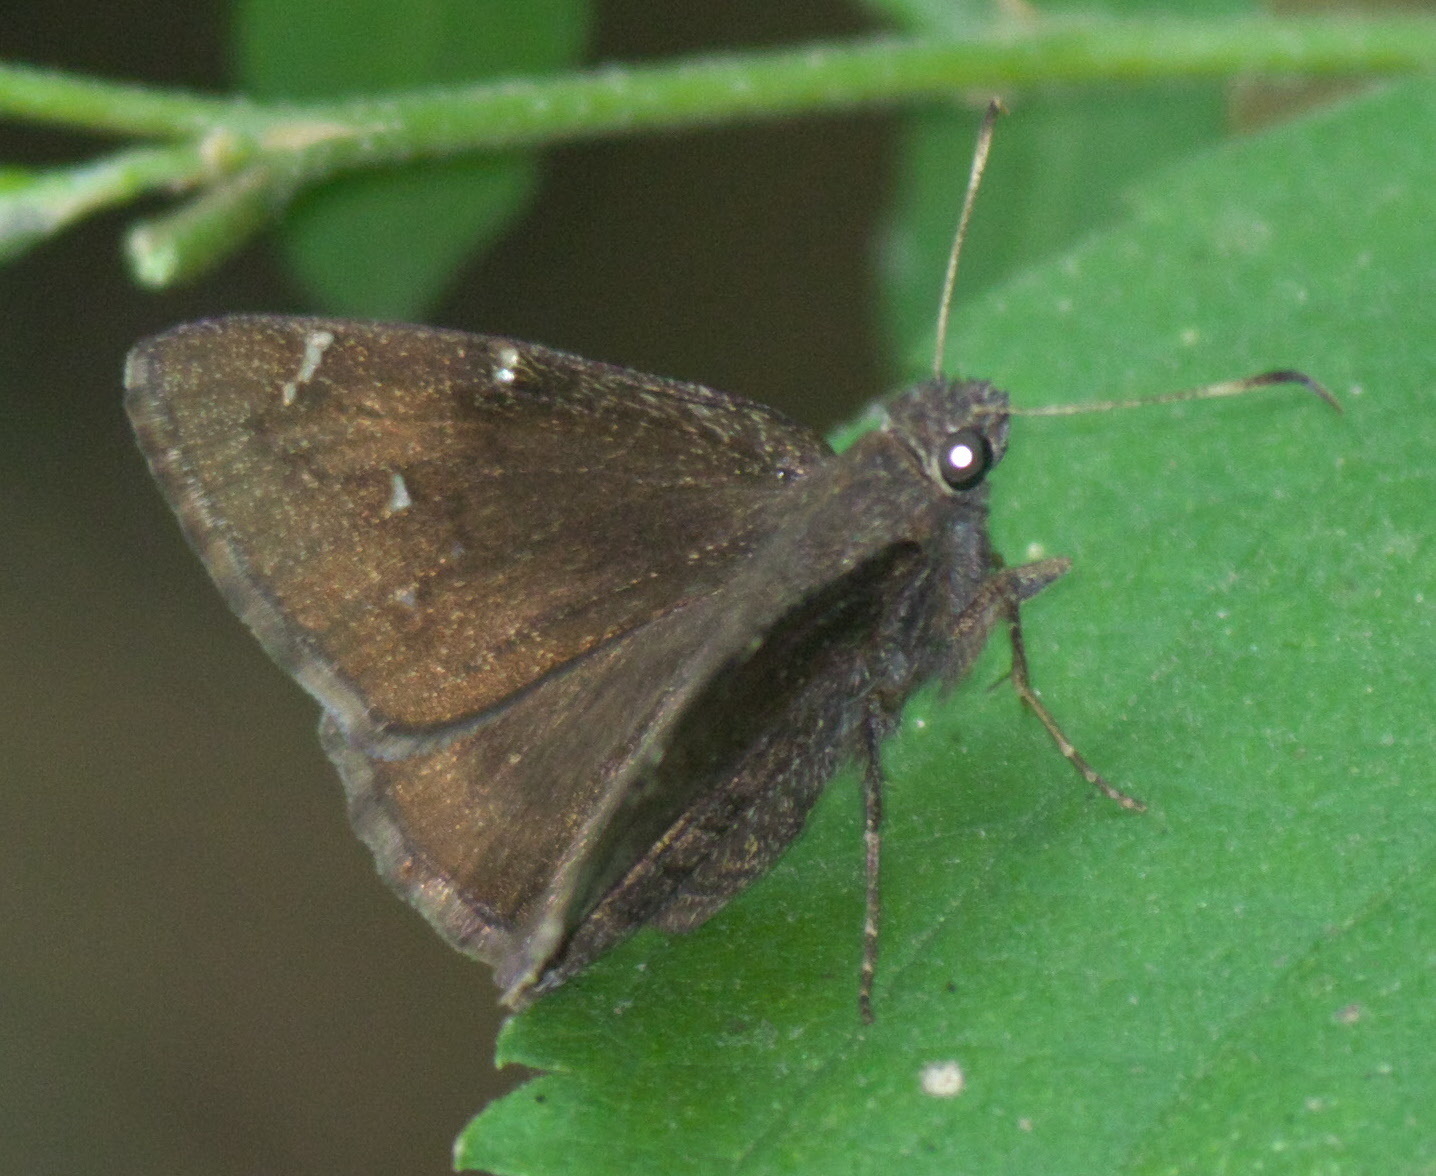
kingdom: Animalia
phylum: Arthropoda
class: Insecta
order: Lepidoptera
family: Hesperiidae
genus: Thorybes
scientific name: Thorybes pylades
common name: Northern cloudywing
